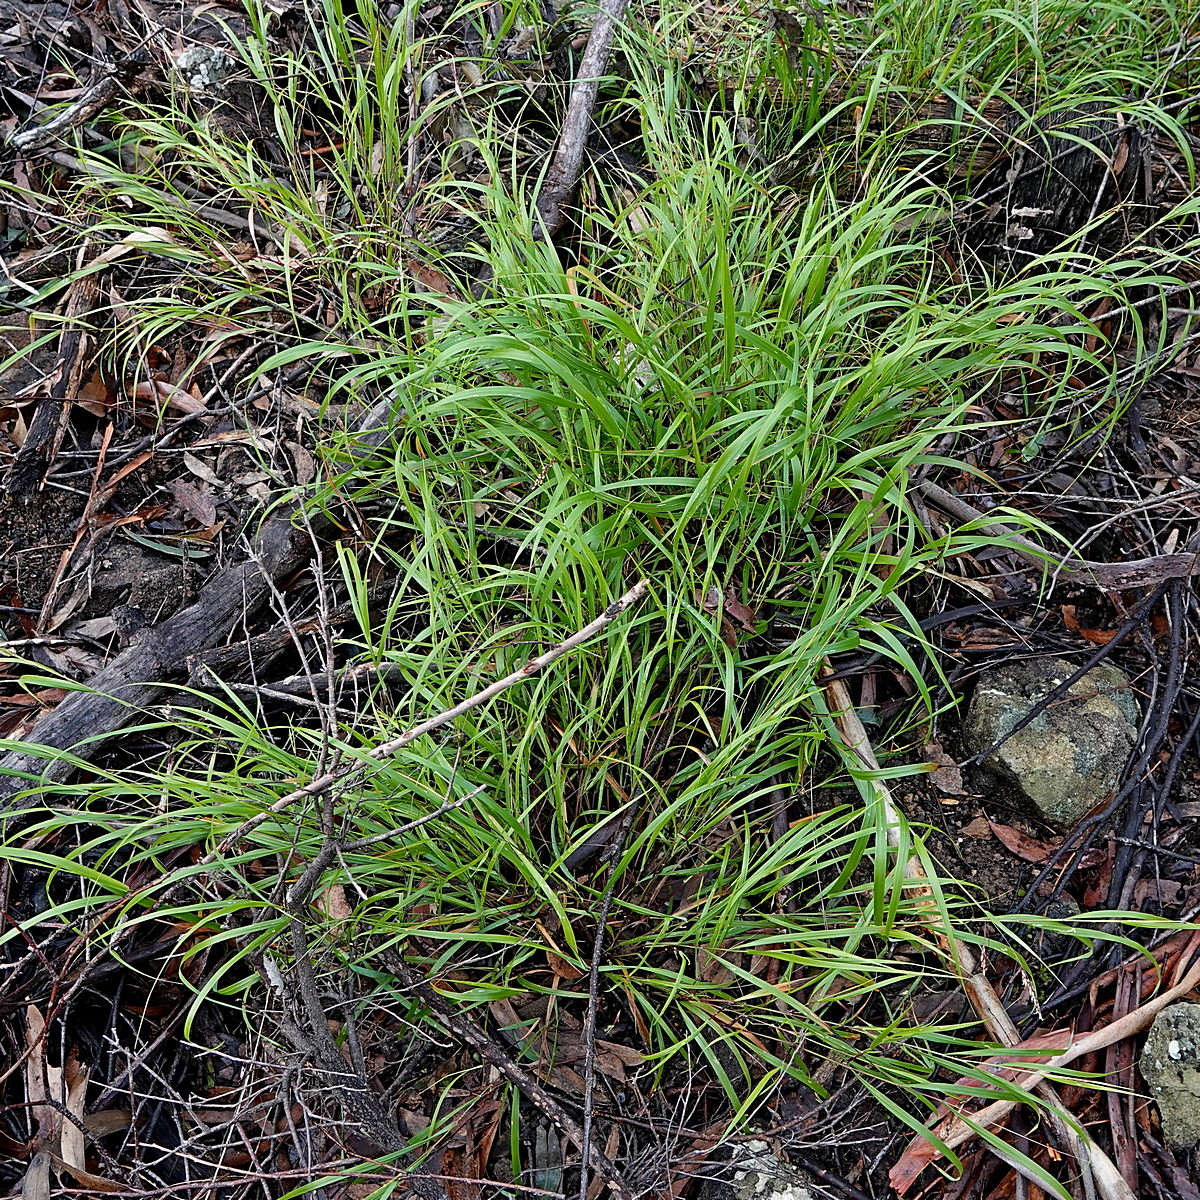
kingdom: Plantae
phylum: Tracheophyta
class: Liliopsida
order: Poales
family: Poaceae
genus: Anthoxanthum
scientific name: Anthoxanthum rariflorum
